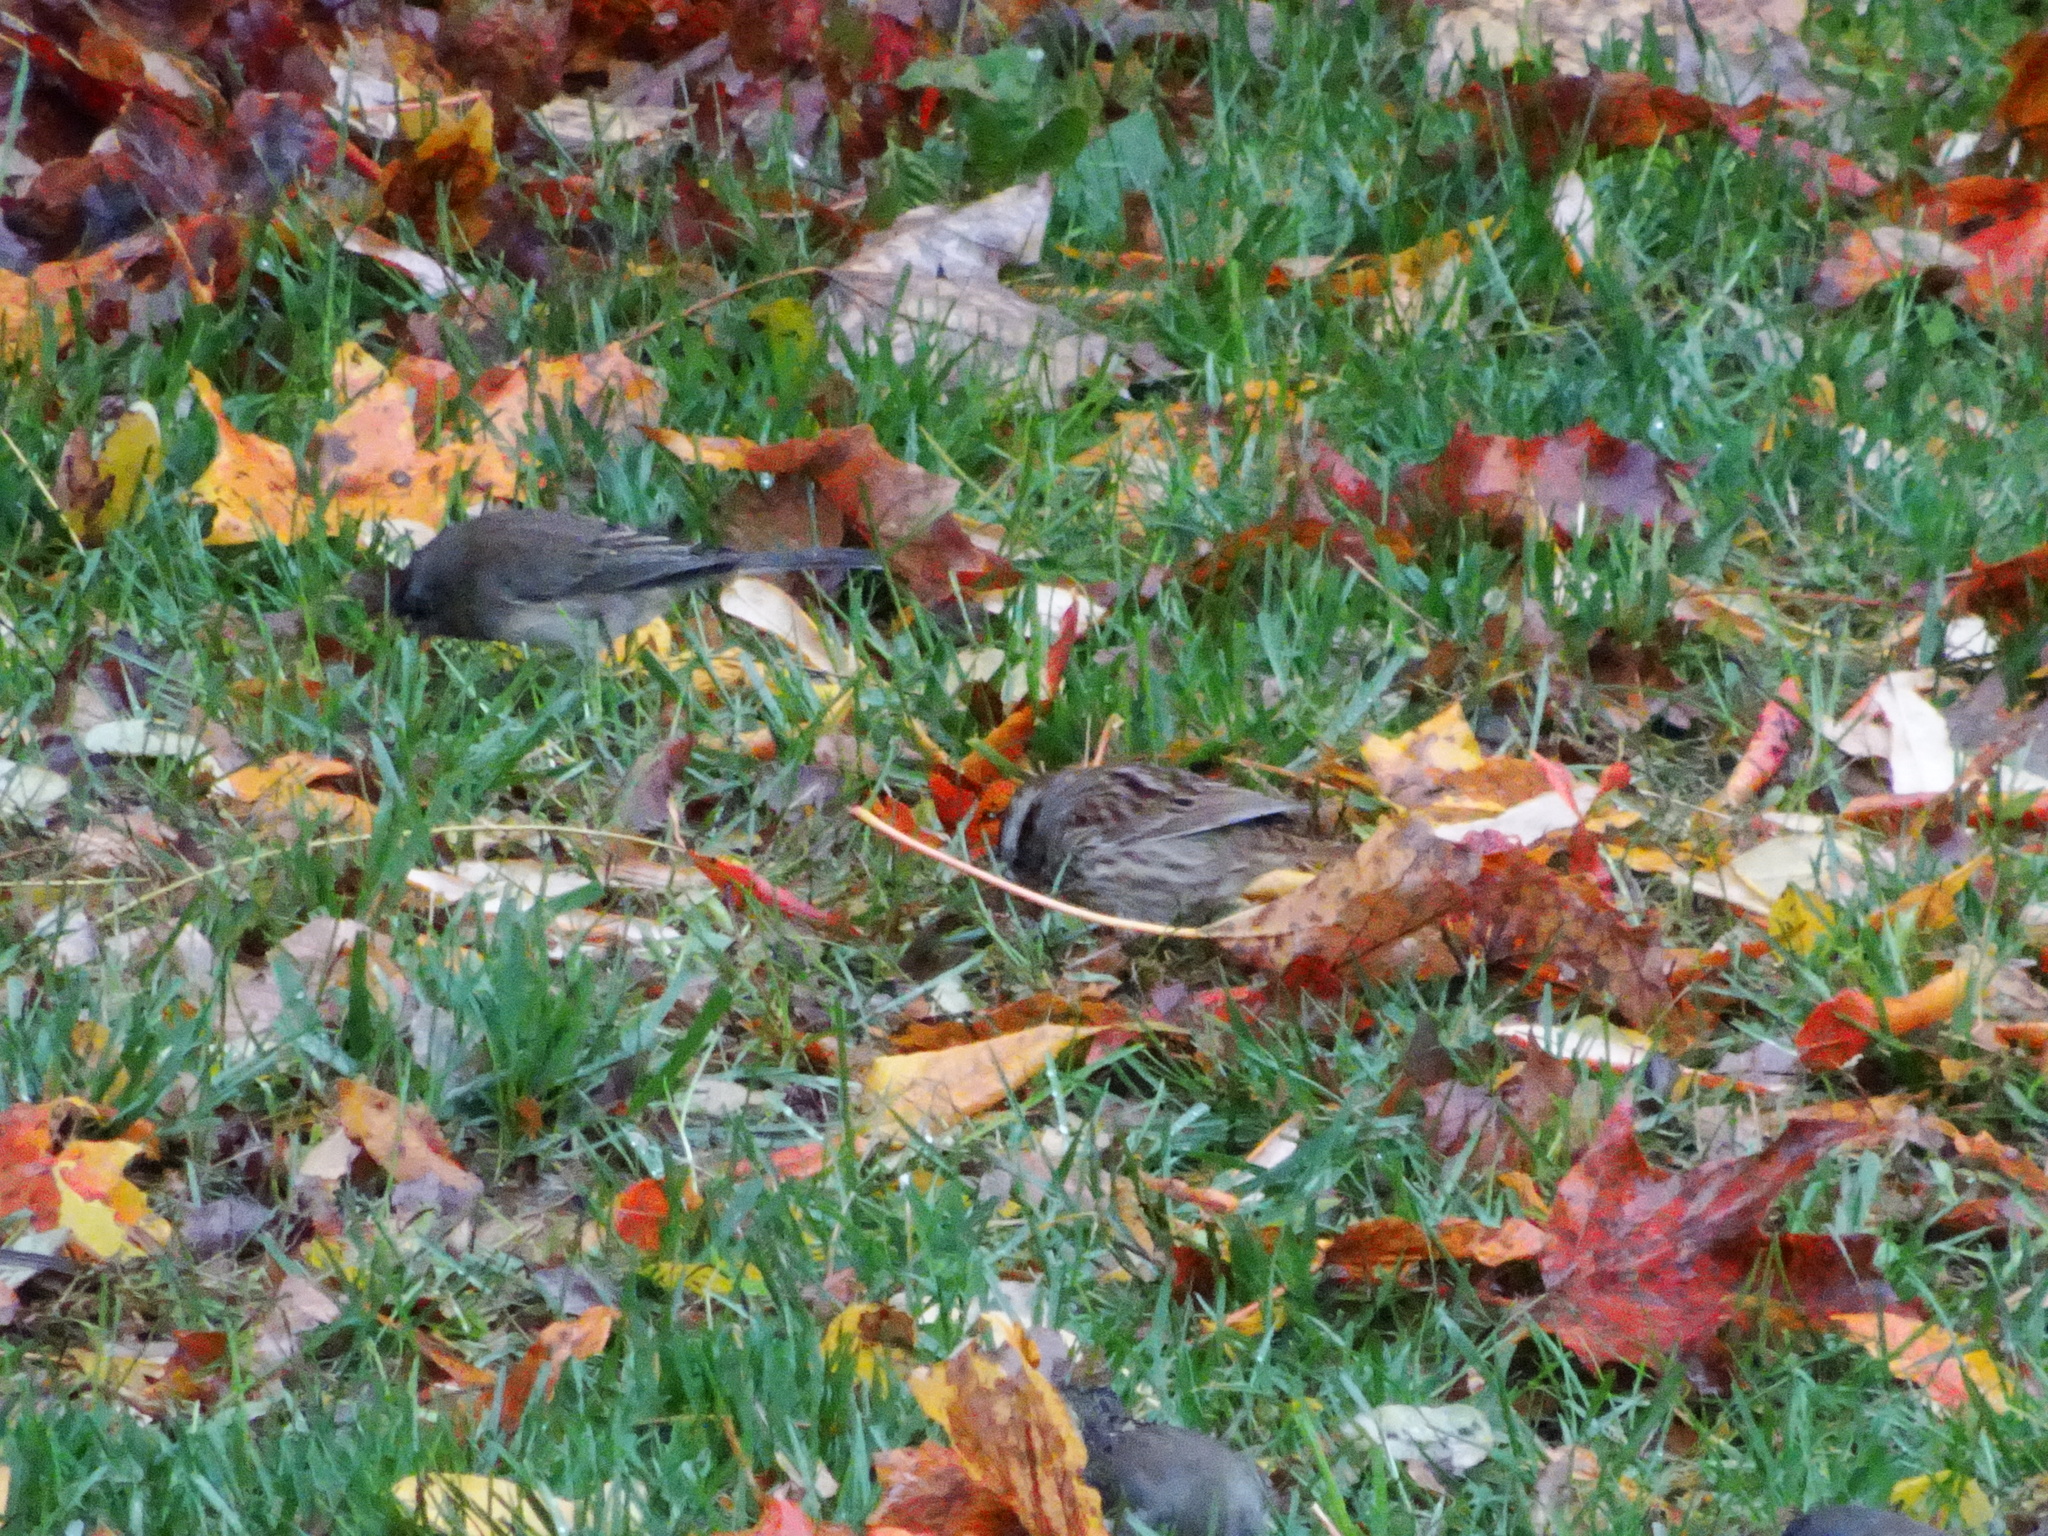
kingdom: Animalia
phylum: Chordata
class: Aves
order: Passeriformes
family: Passerellidae
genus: Melospiza
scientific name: Melospiza melodia
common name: Song sparrow
